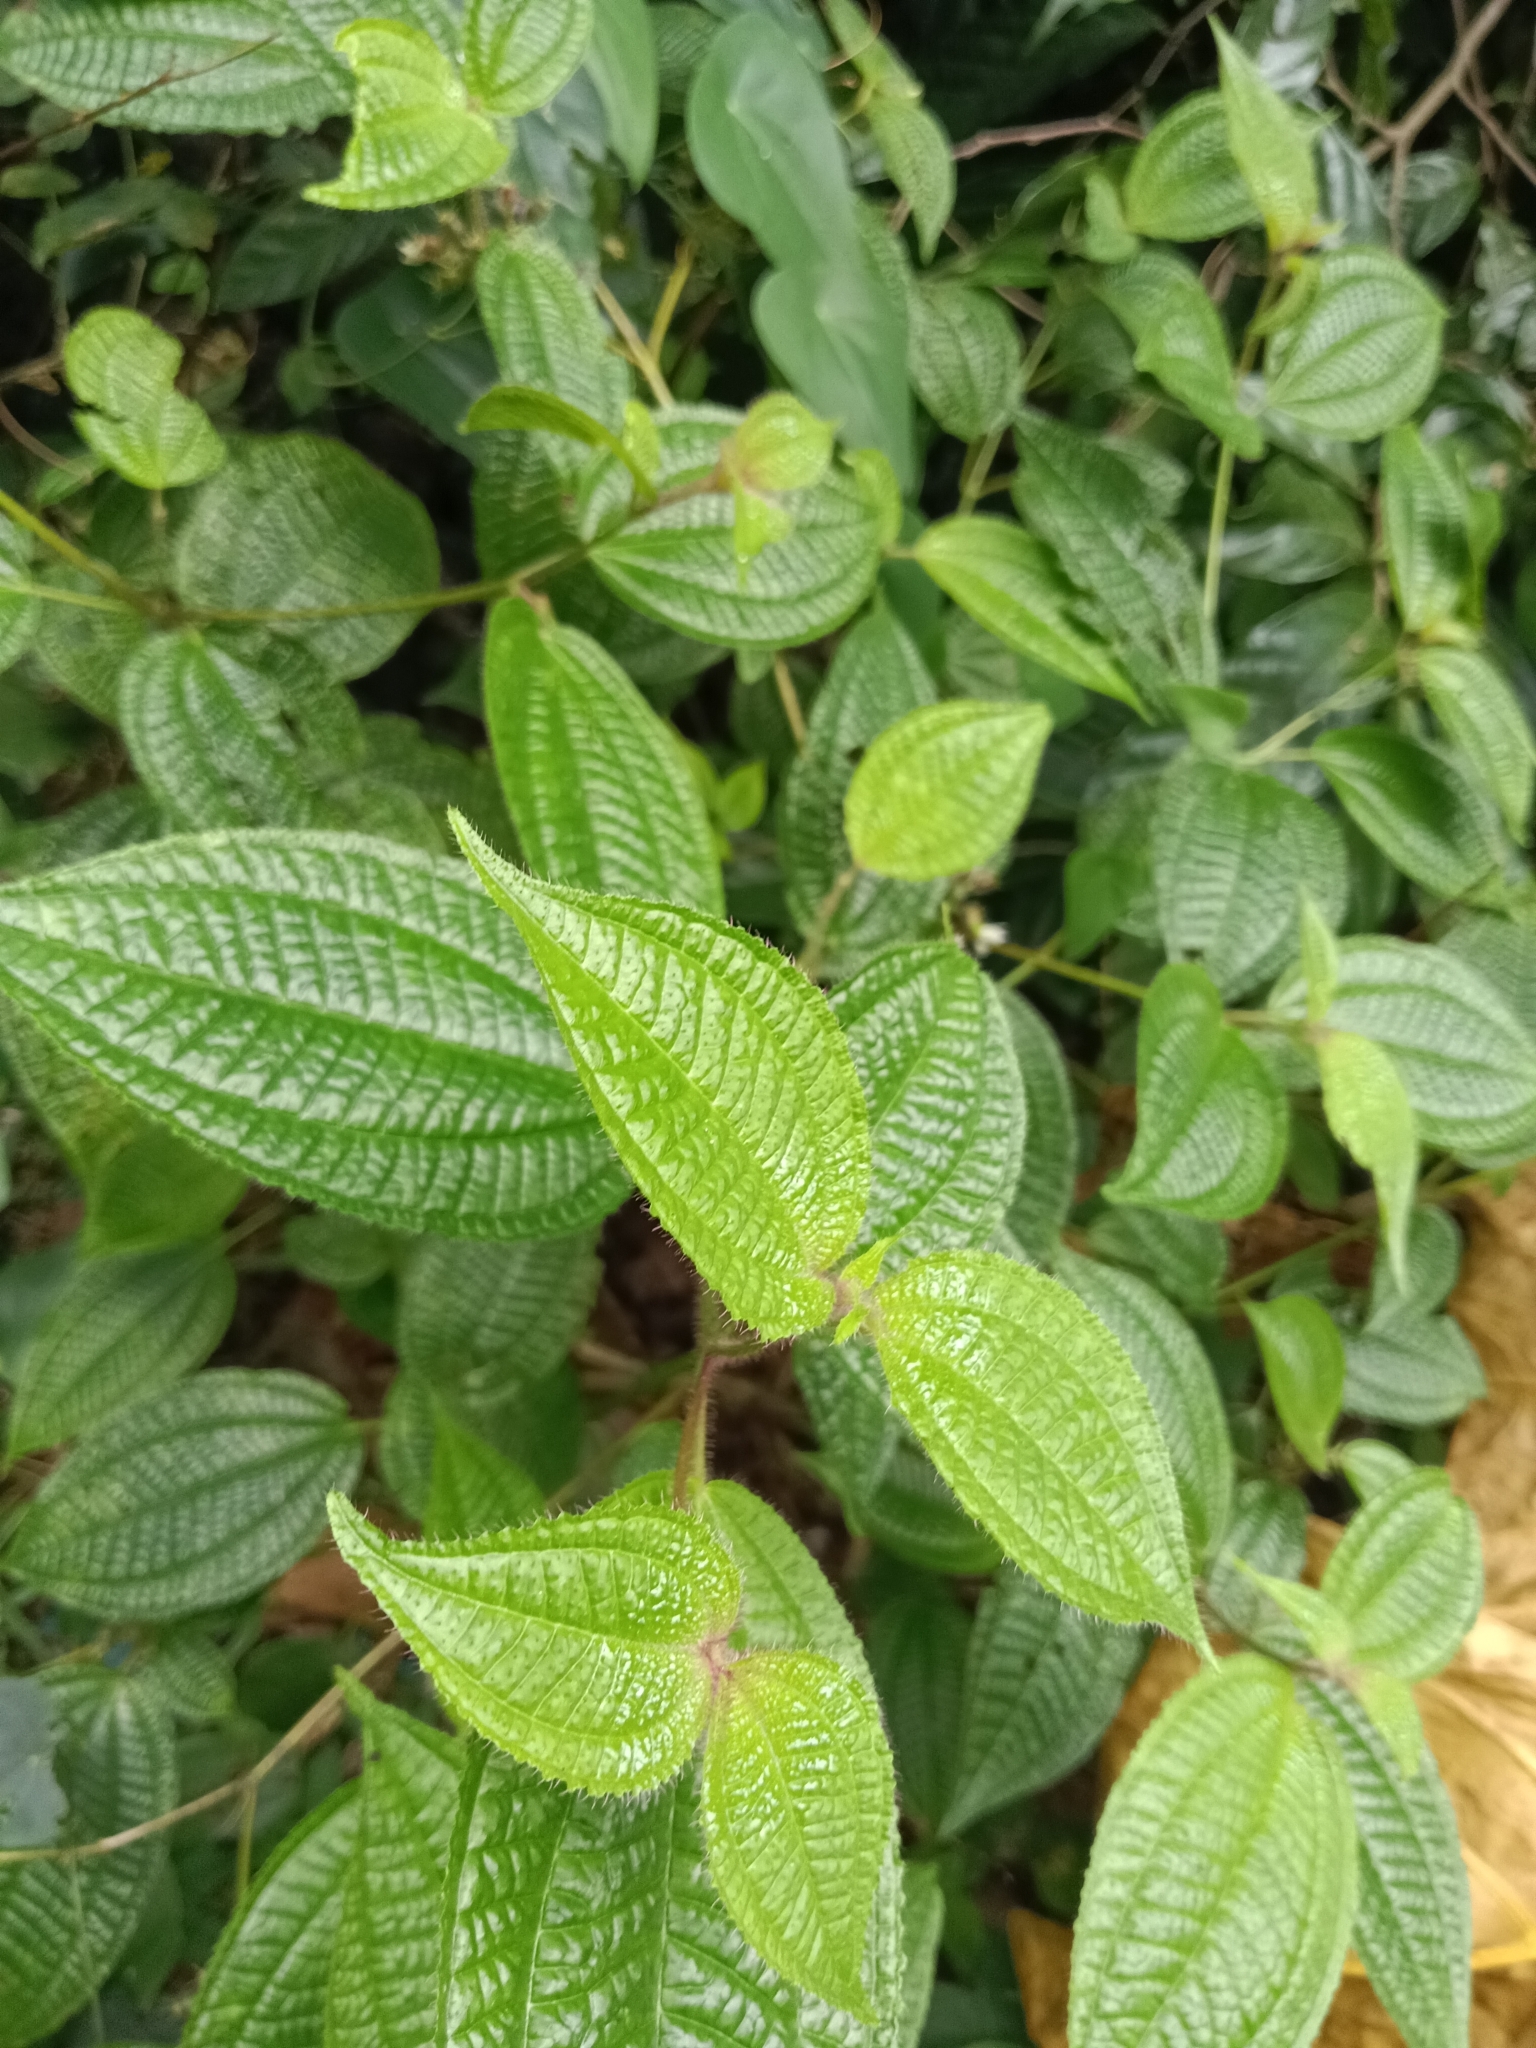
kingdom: Plantae
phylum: Tracheophyta
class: Magnoliopsida
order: Myrtales
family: Melastomataceae
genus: Miconia
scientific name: Miconia crenata
